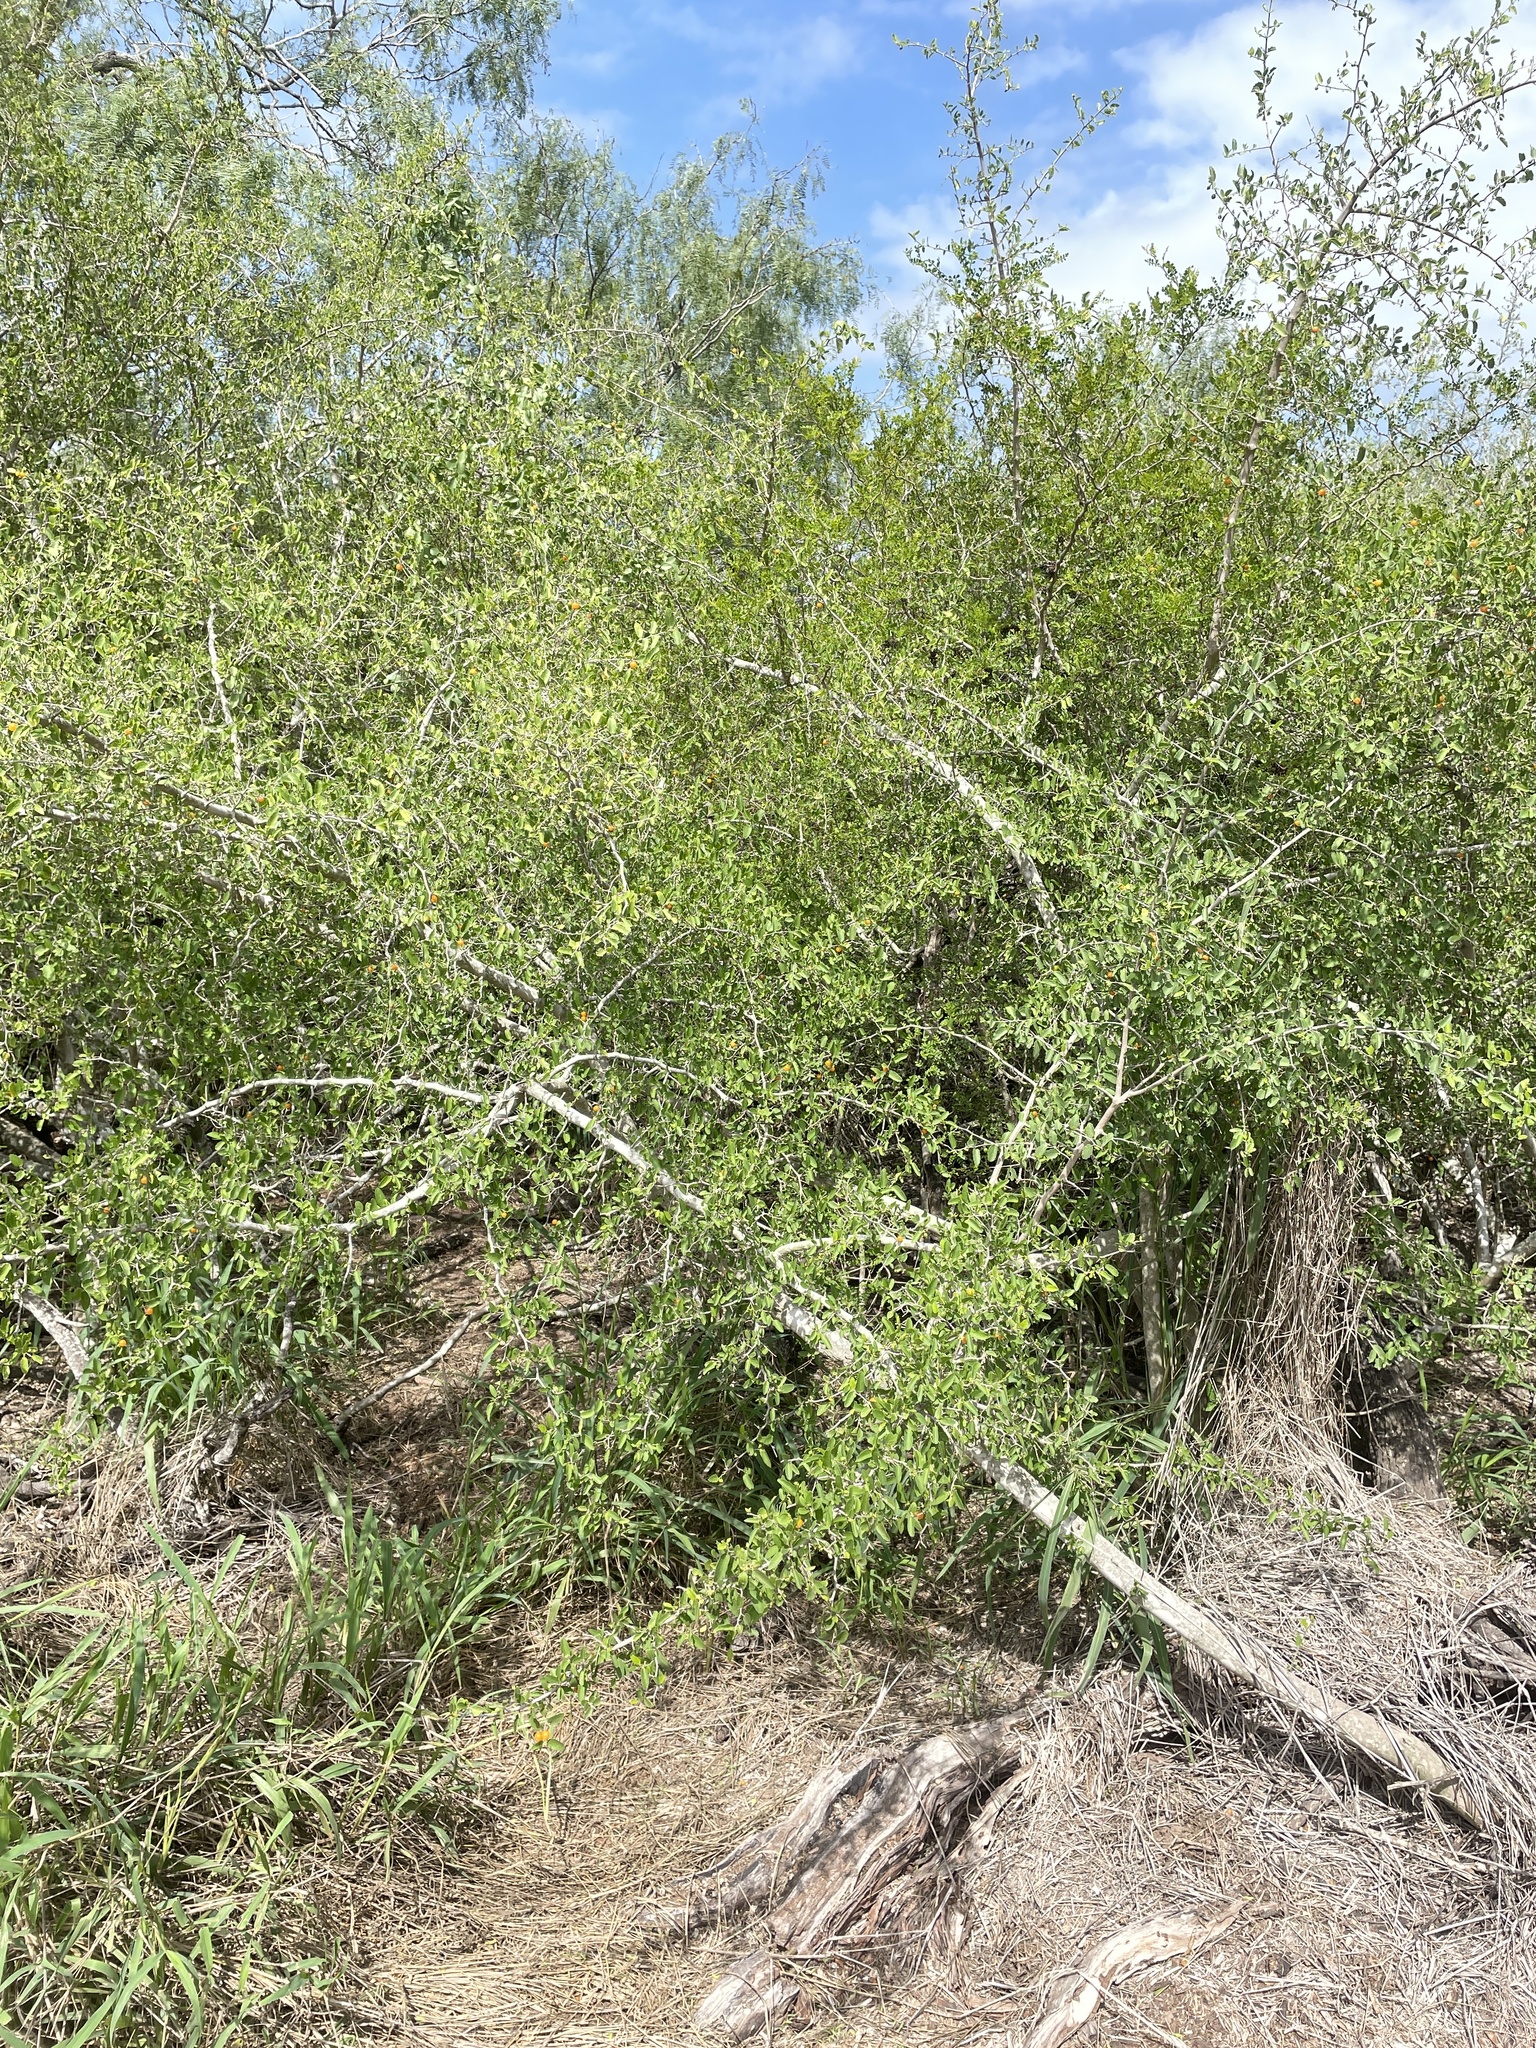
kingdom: Plantae
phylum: Tracheophyta
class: Magnoliopsida
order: Rosales
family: Cannabaceae
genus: Celtis
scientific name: Celtis pallida
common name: Desert hackberry
